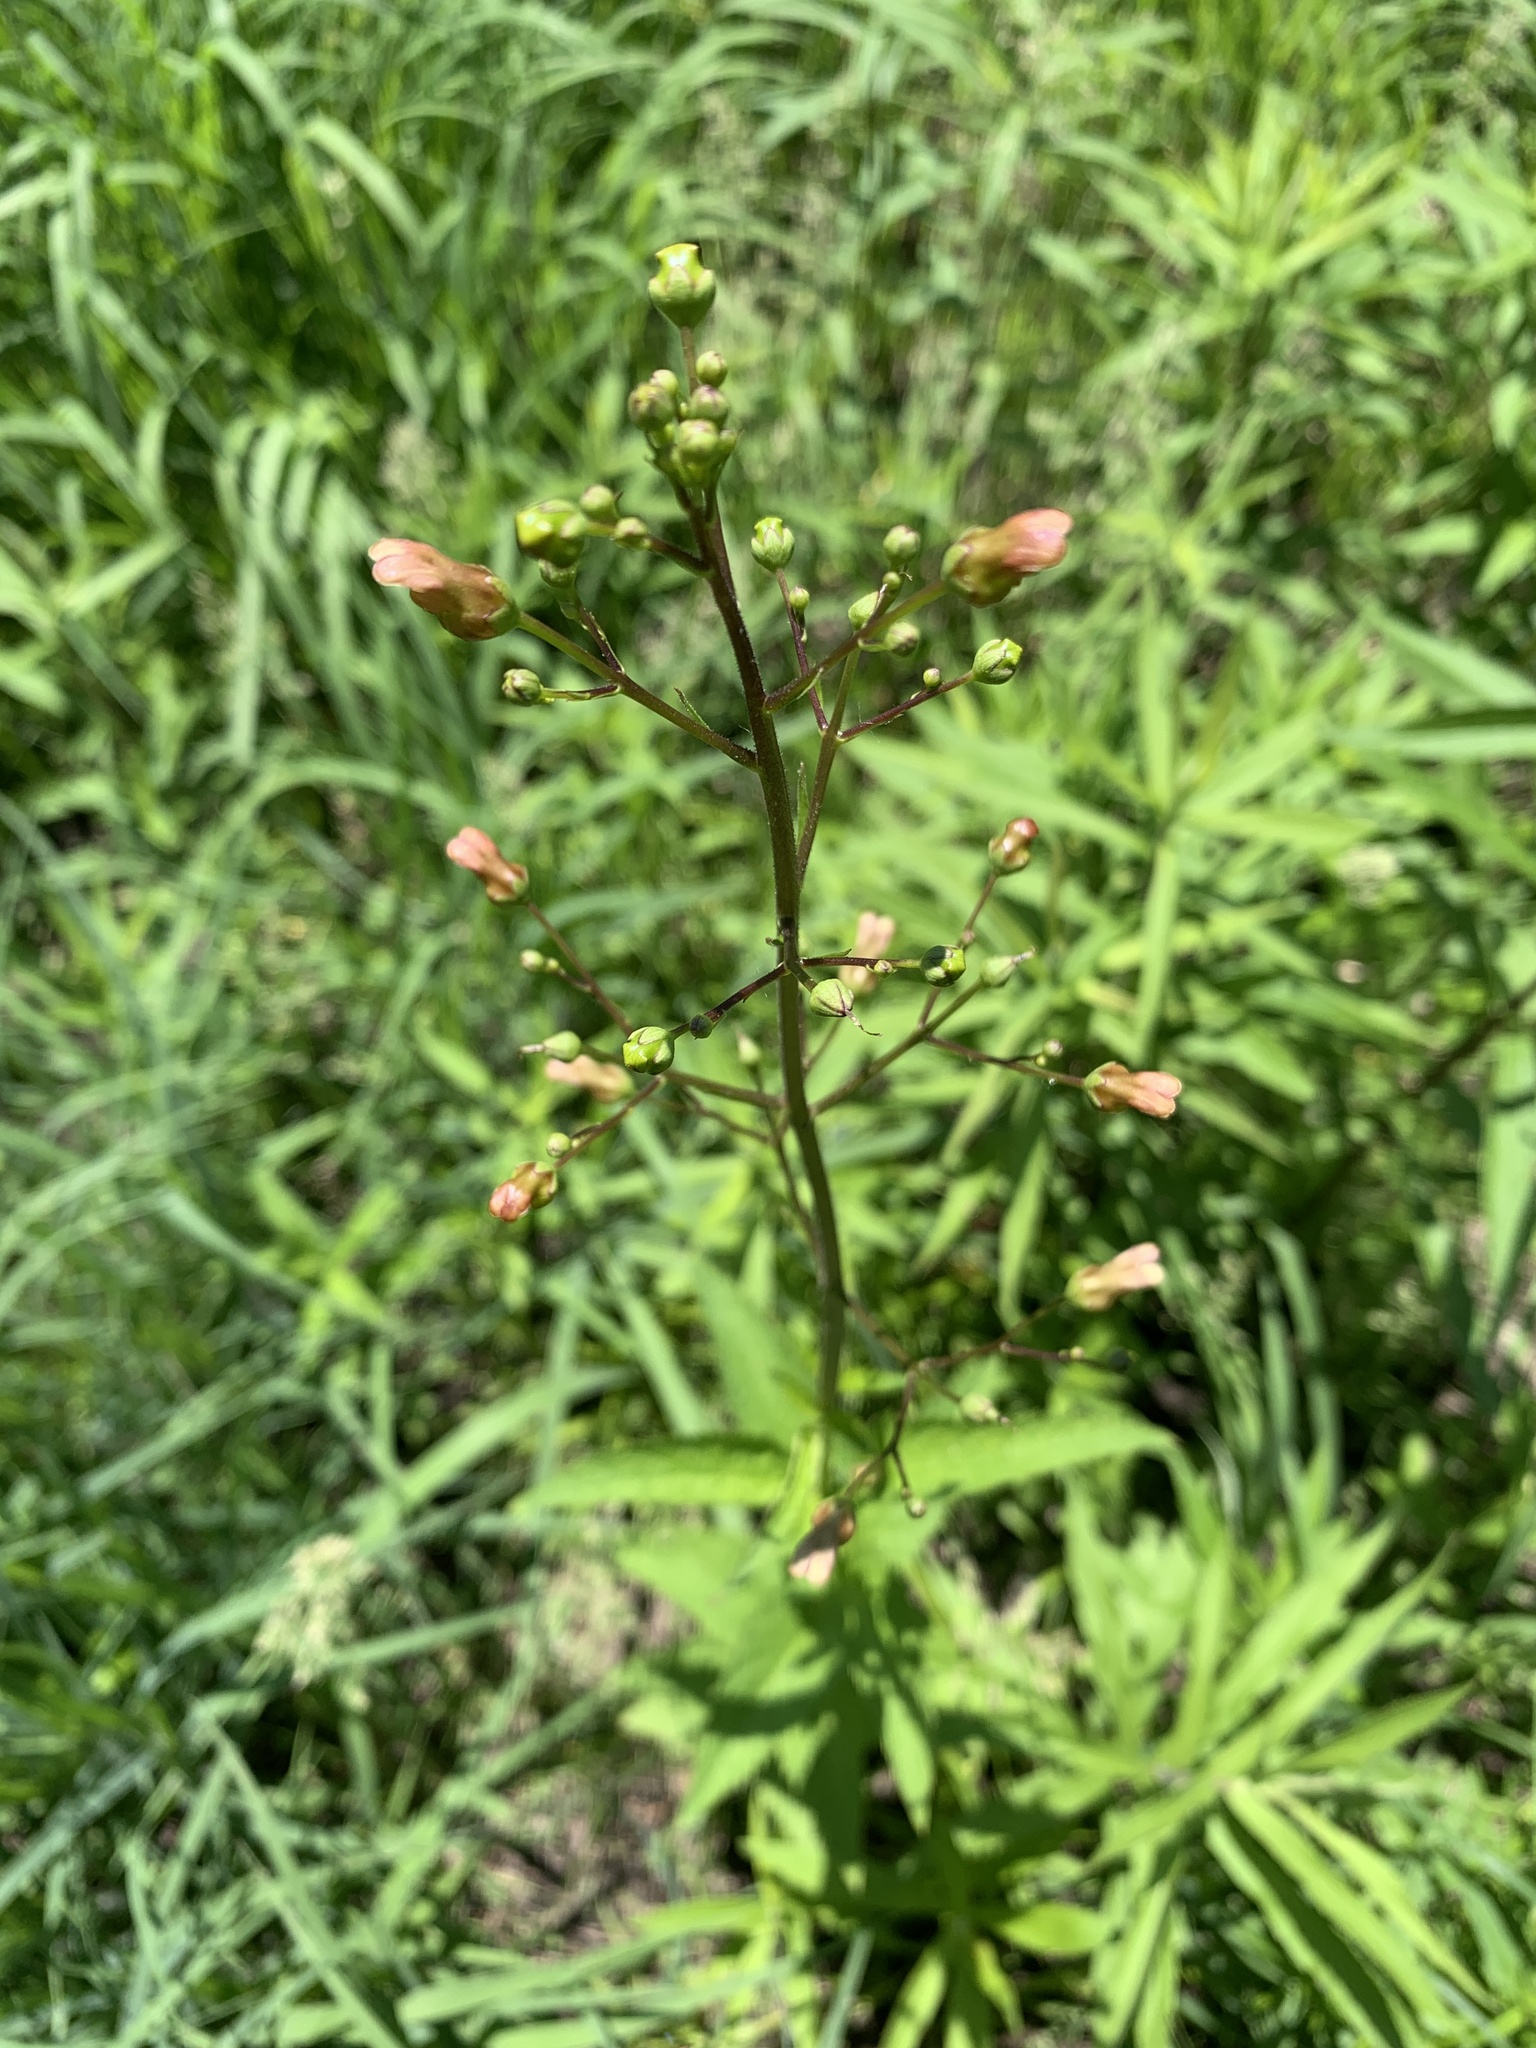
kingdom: Plantae
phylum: Tracheophyta
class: Magnoliopsida
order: Lamiales
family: Scrophulariaceae
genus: Scrophularia
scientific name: Scrophularia lanceolata
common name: American figwort
